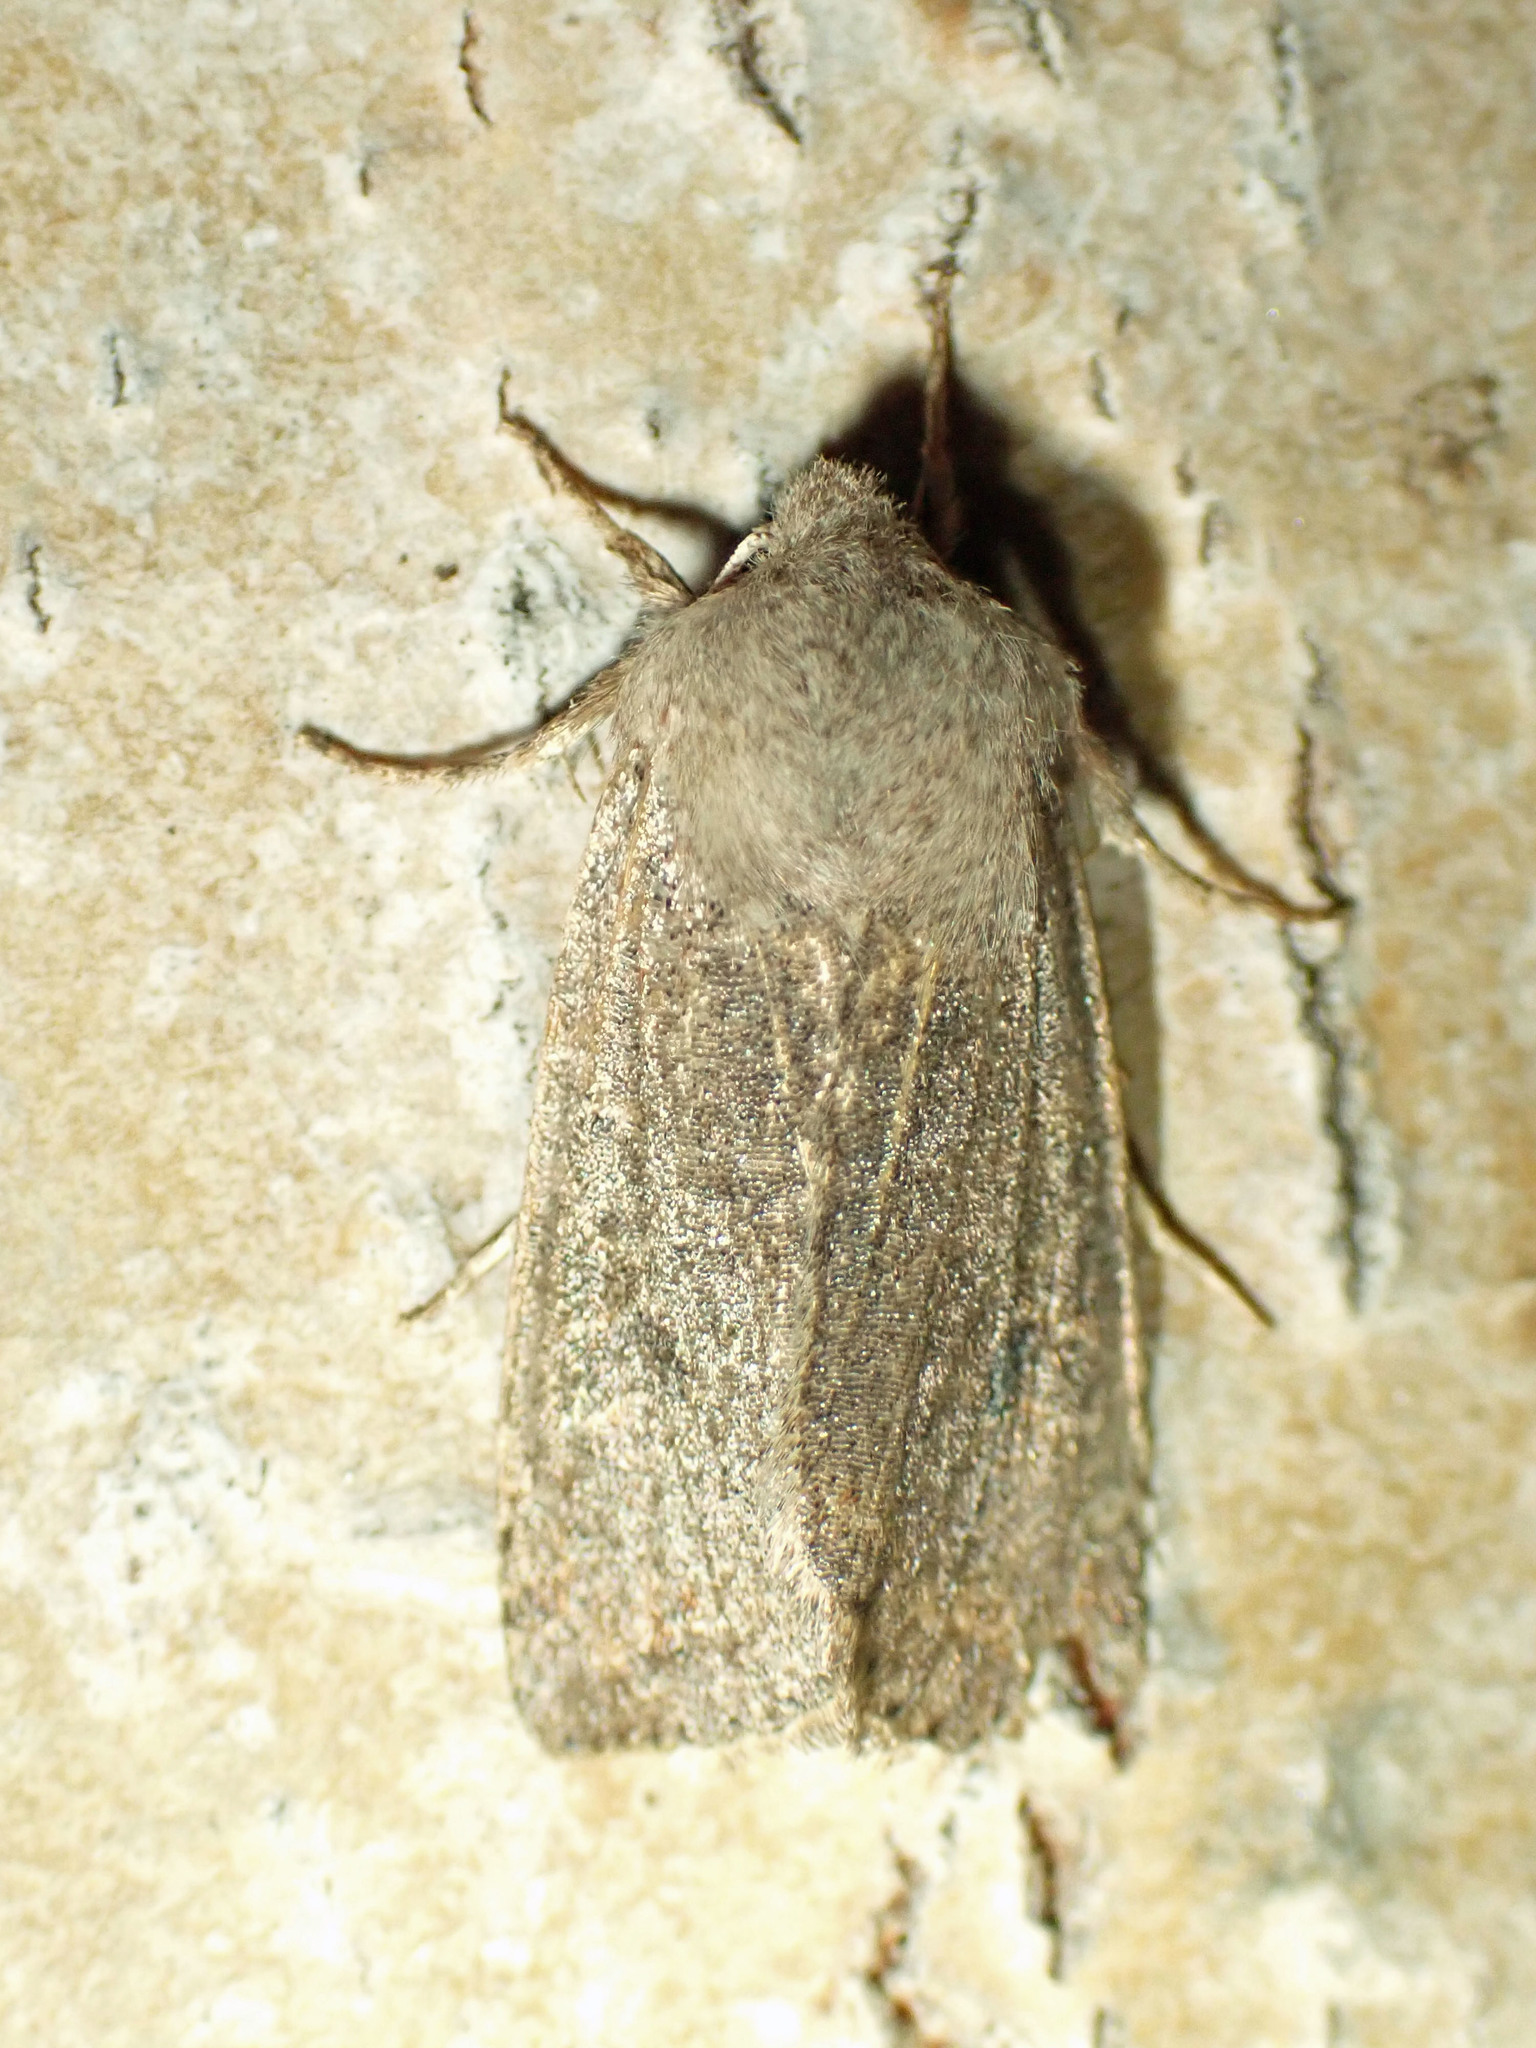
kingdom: Animalia
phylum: Arthropoda
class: Insecta
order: Lepidoptera
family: Noctuidae
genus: Orthosia
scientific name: Orthosia hibisci
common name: Green fruitworm
